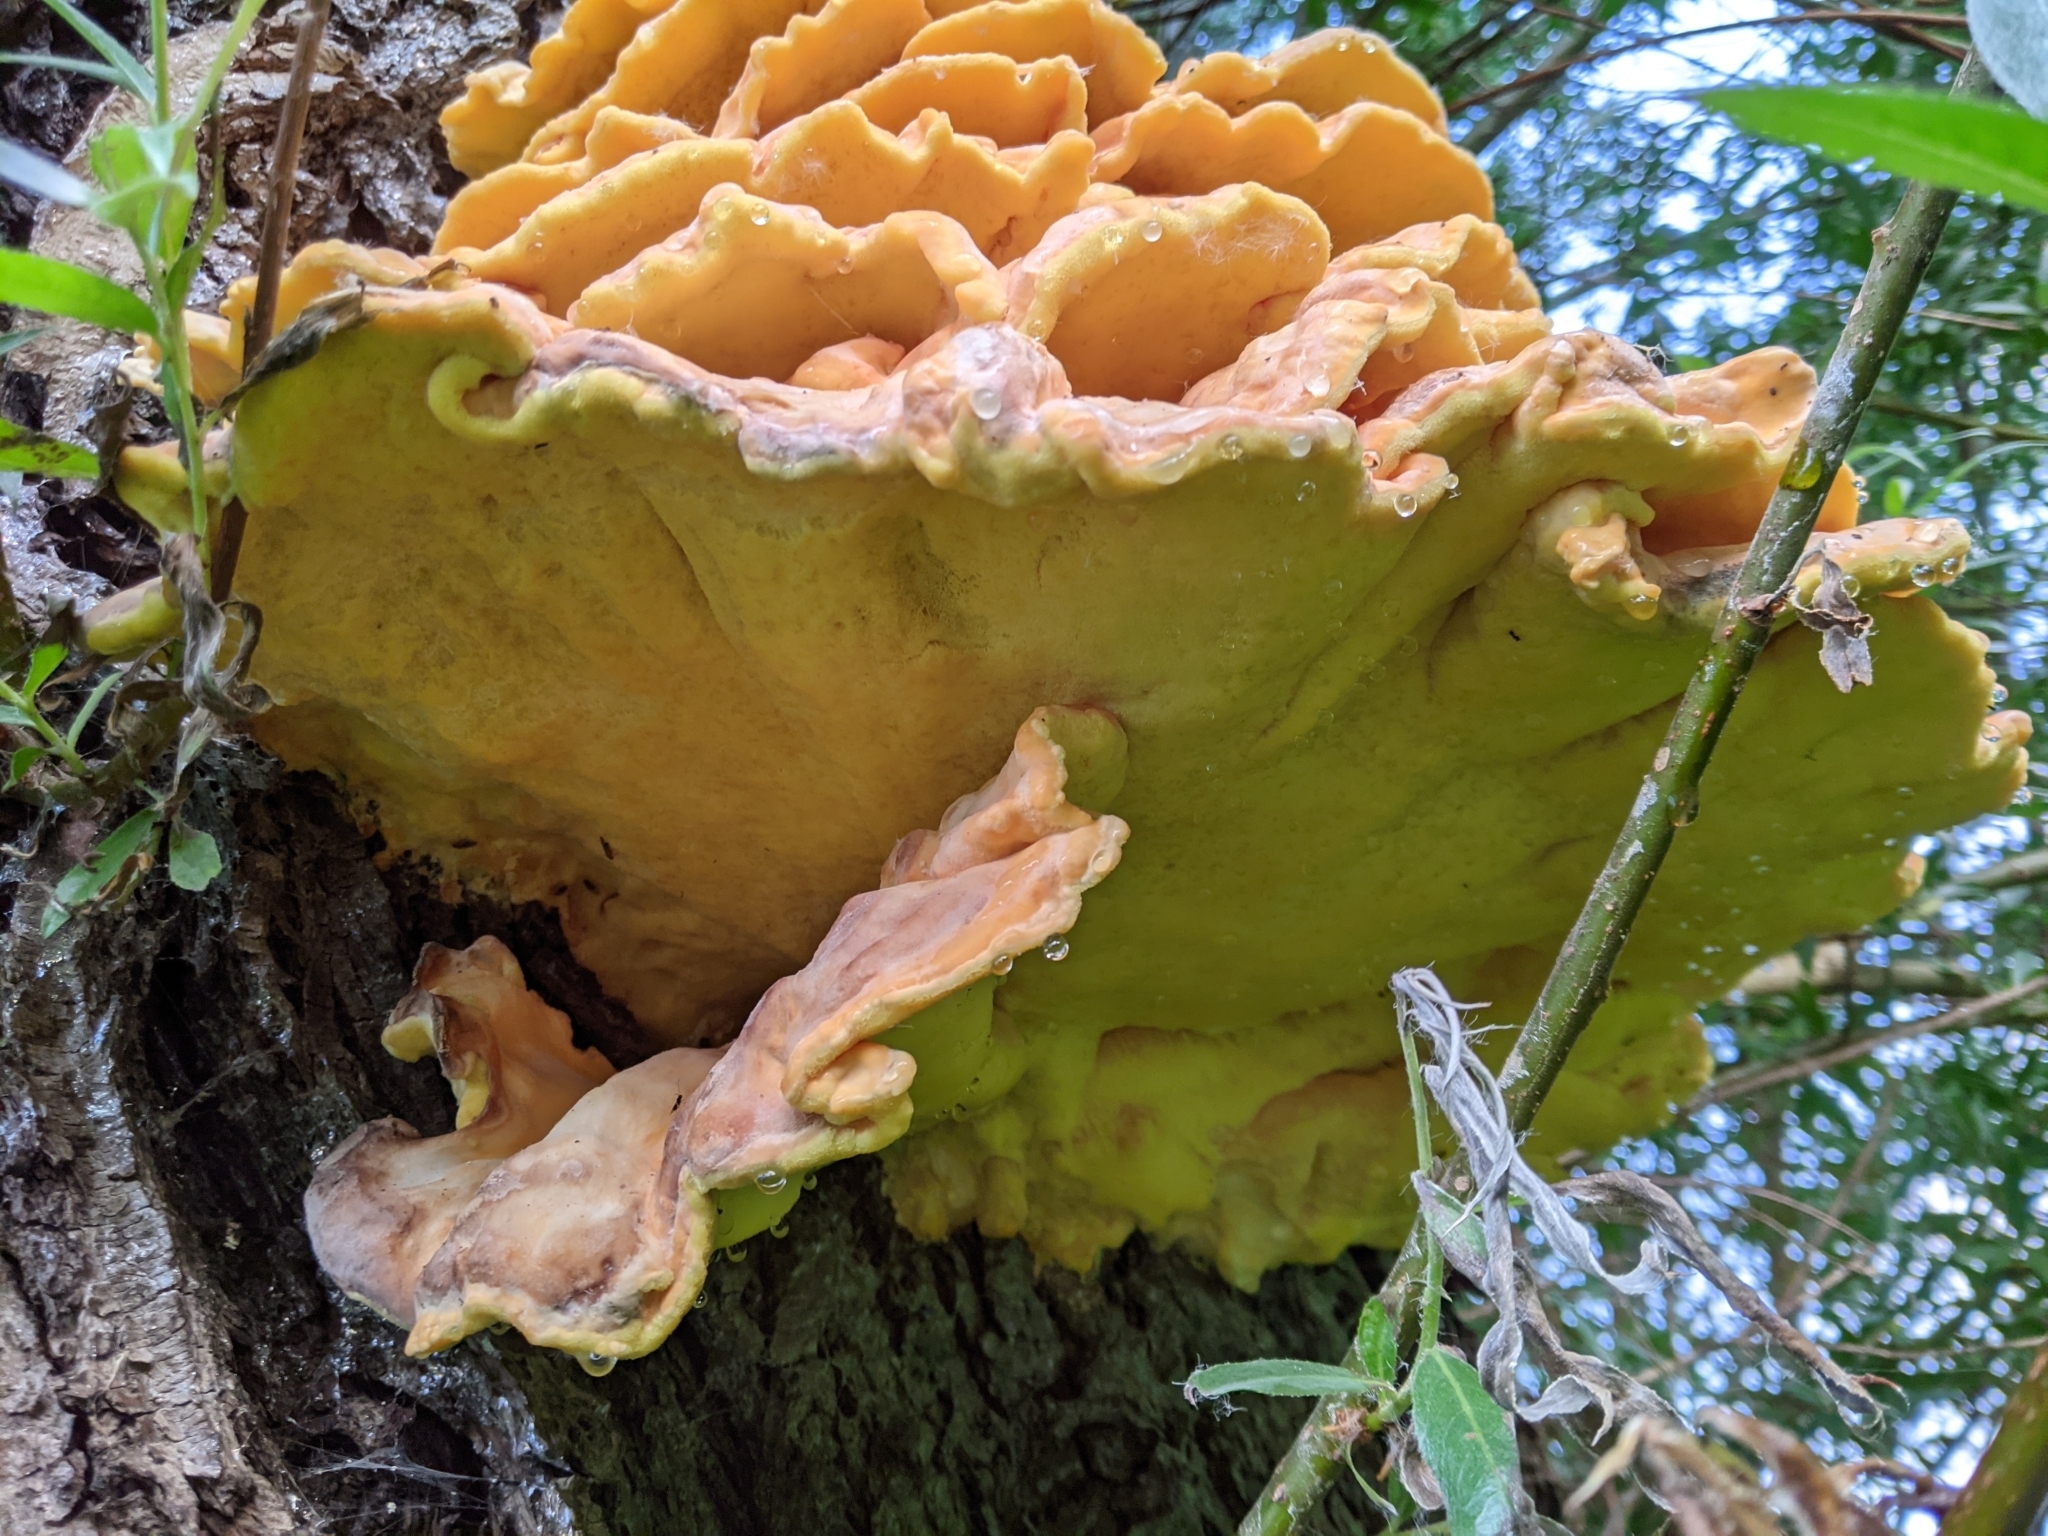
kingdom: Fungi
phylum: Basidiomycota
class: Agaricomycetes
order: Polyporales
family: Laetiporaceae
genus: Laetiporus
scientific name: Laetiporus sulphureus
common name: Chicken of the woods
